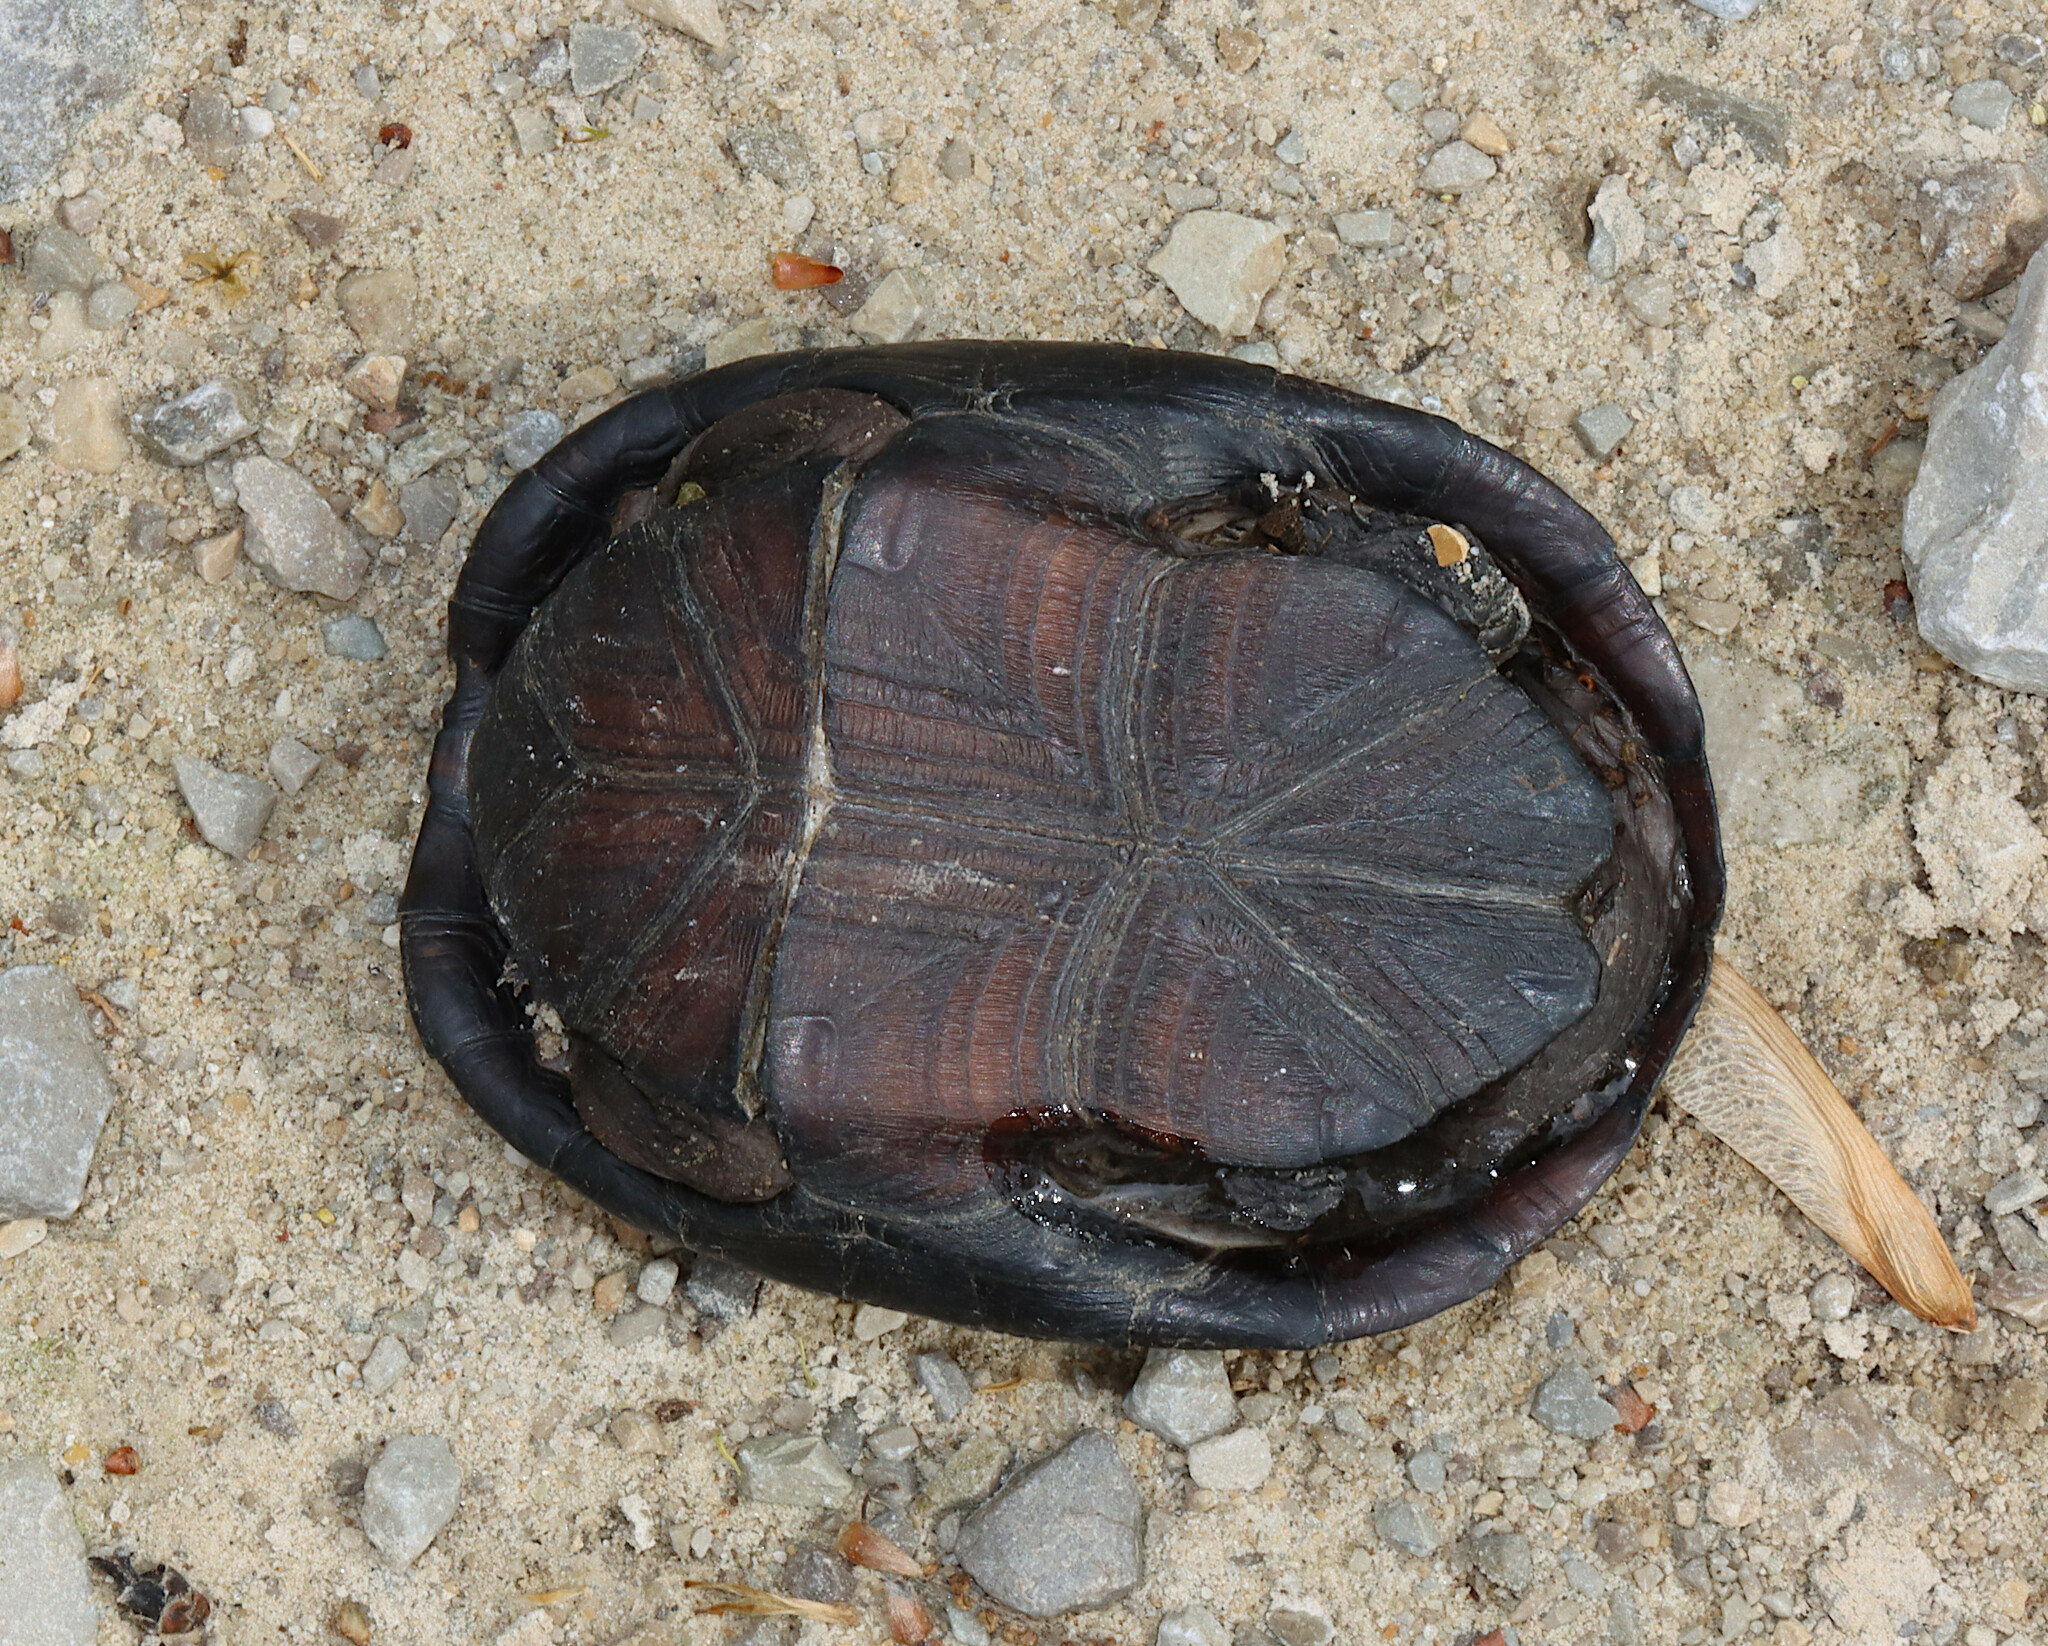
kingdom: Animalia
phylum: Chordata
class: Testudines
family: Kinosternidae
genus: Kinosternon
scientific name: Kinosternon subrubrum
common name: Eastern mud turtle
